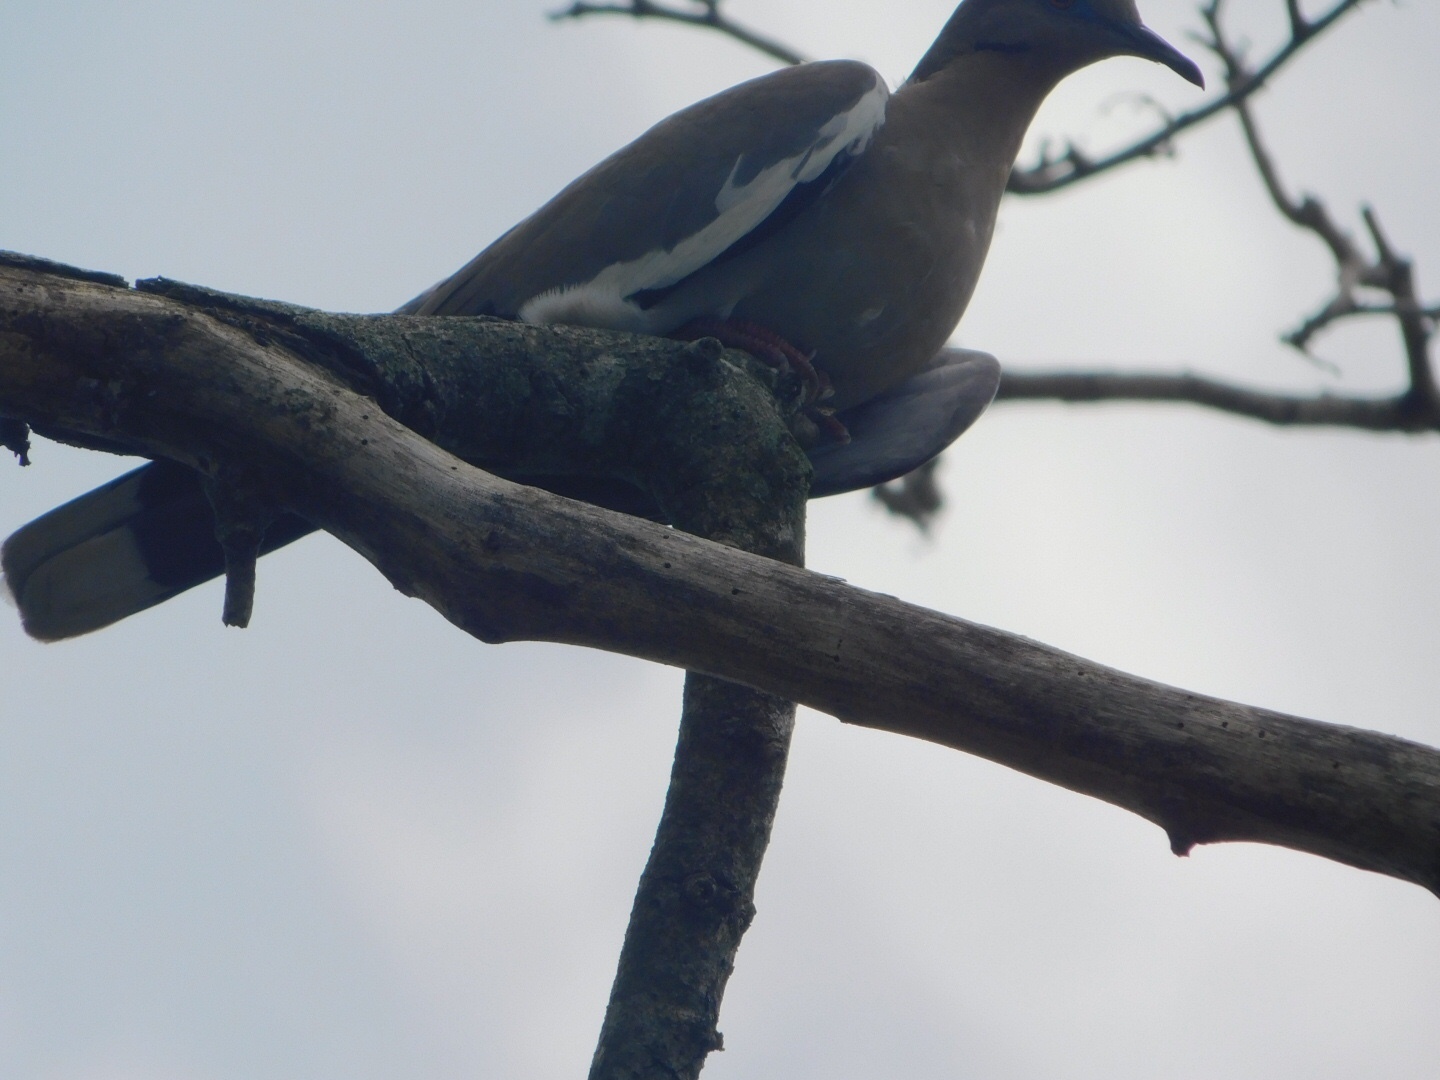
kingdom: Animalia
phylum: Chordata
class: Aves
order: Columbiformes
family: Columbidae
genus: Zenaida
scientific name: Zenaida asiatica
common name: White-winged dove
